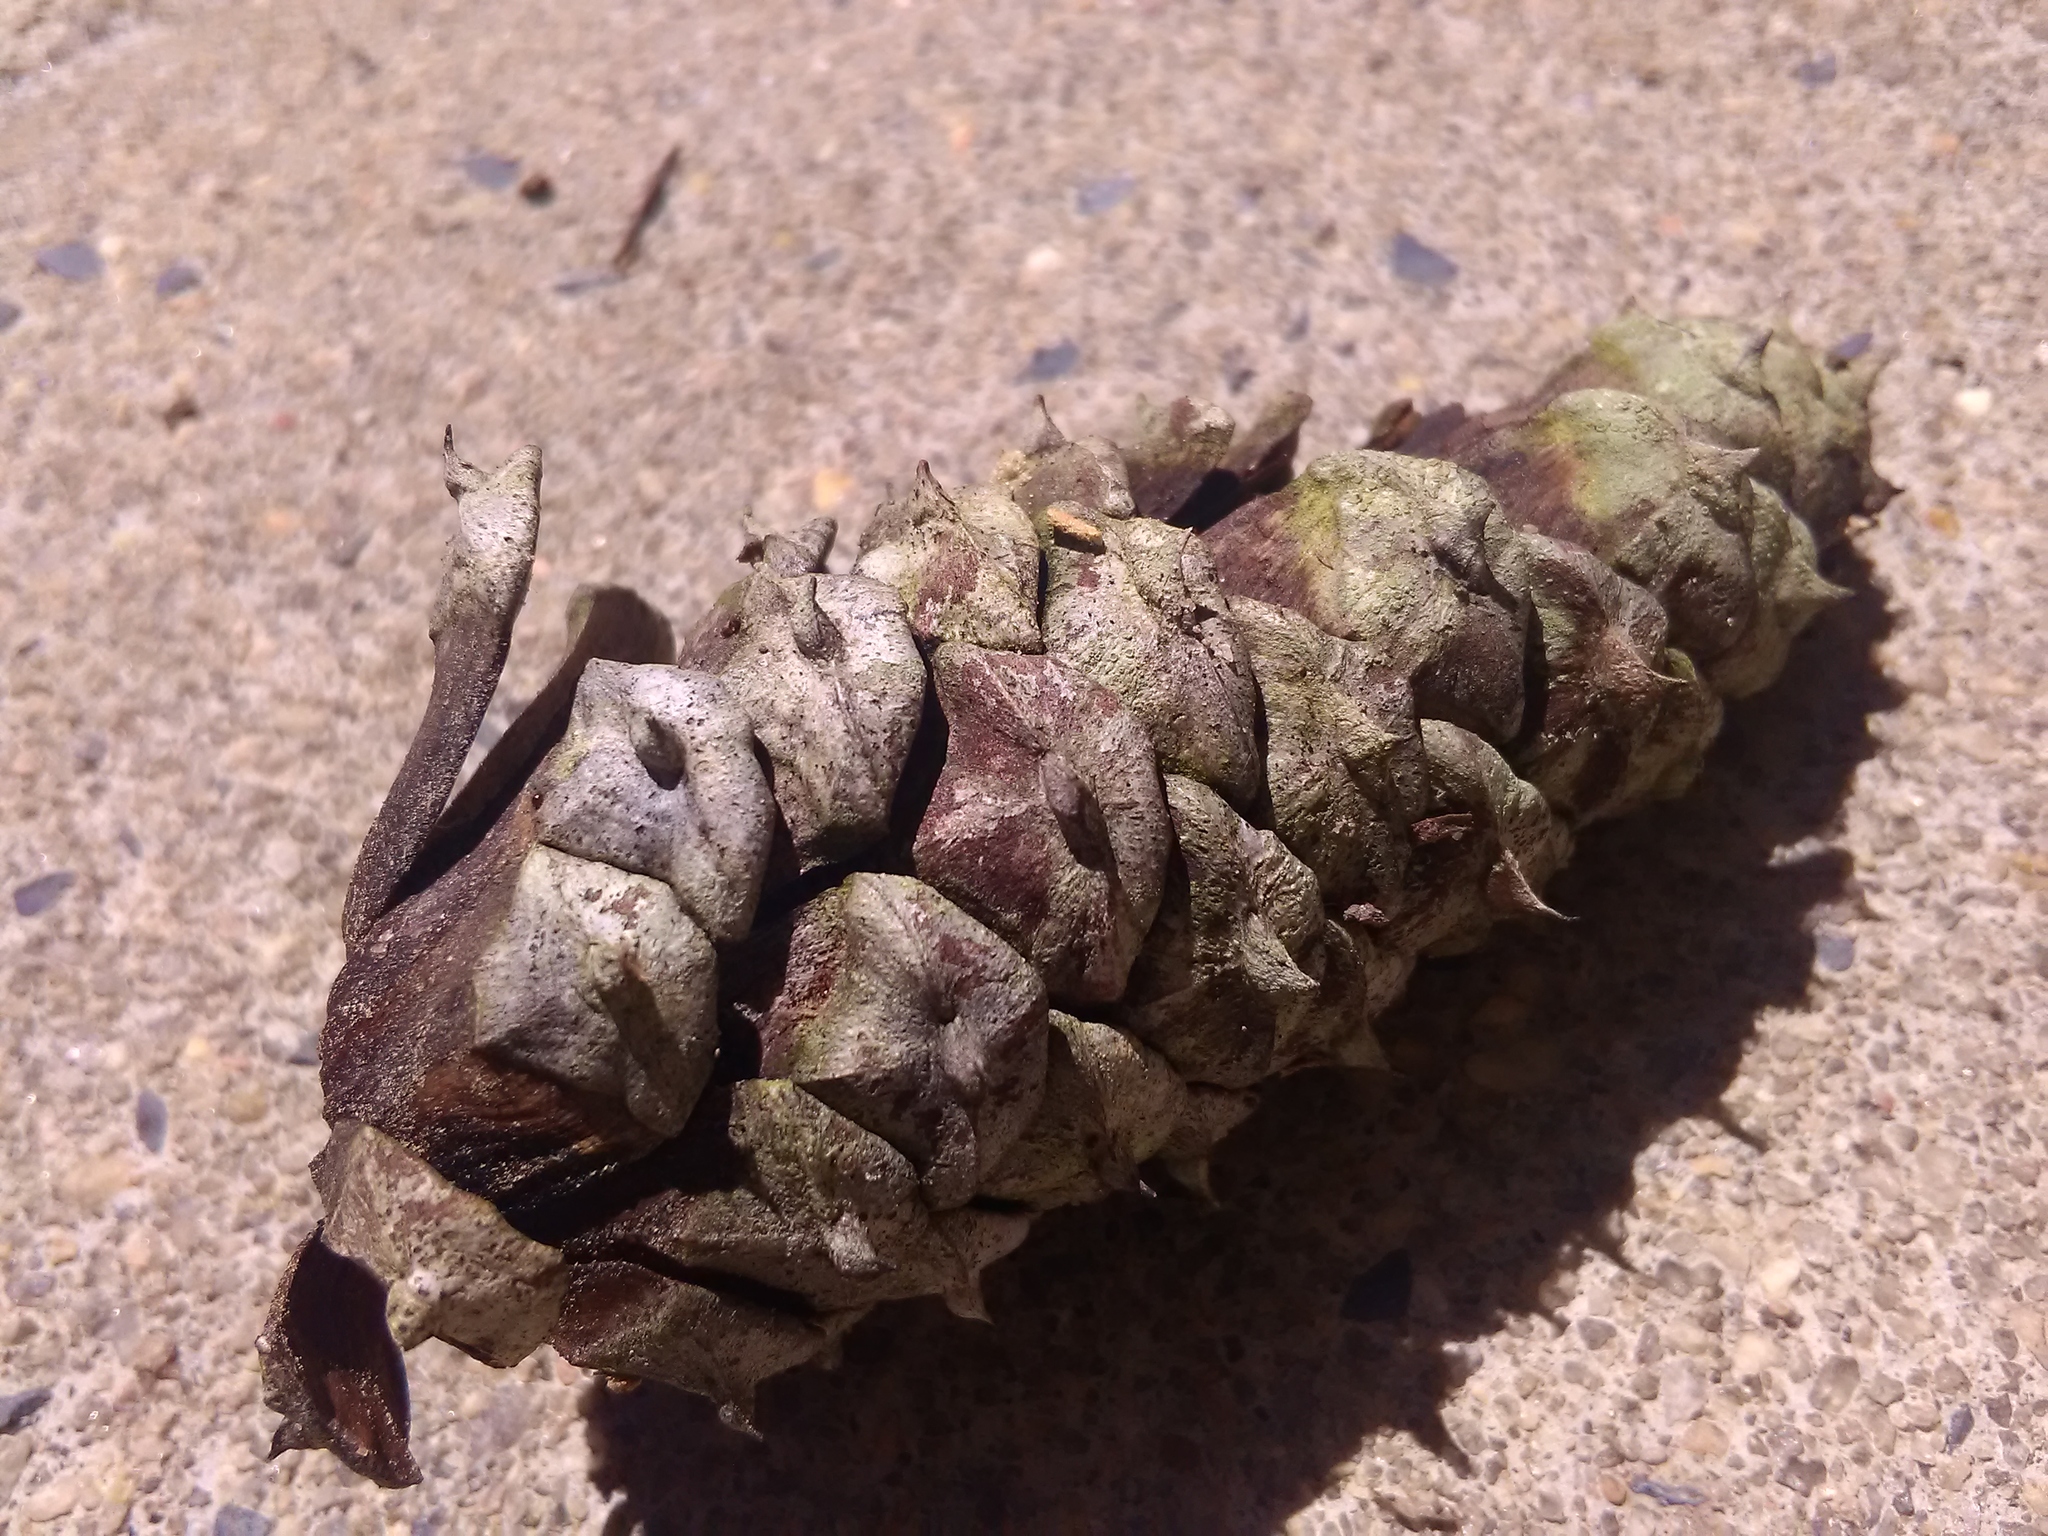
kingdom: Fungi
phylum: Ascomycota
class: Lecanoromycetes
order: Lecanorales
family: Lecanoraceae
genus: Lecanora
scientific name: Lecanora minutella
